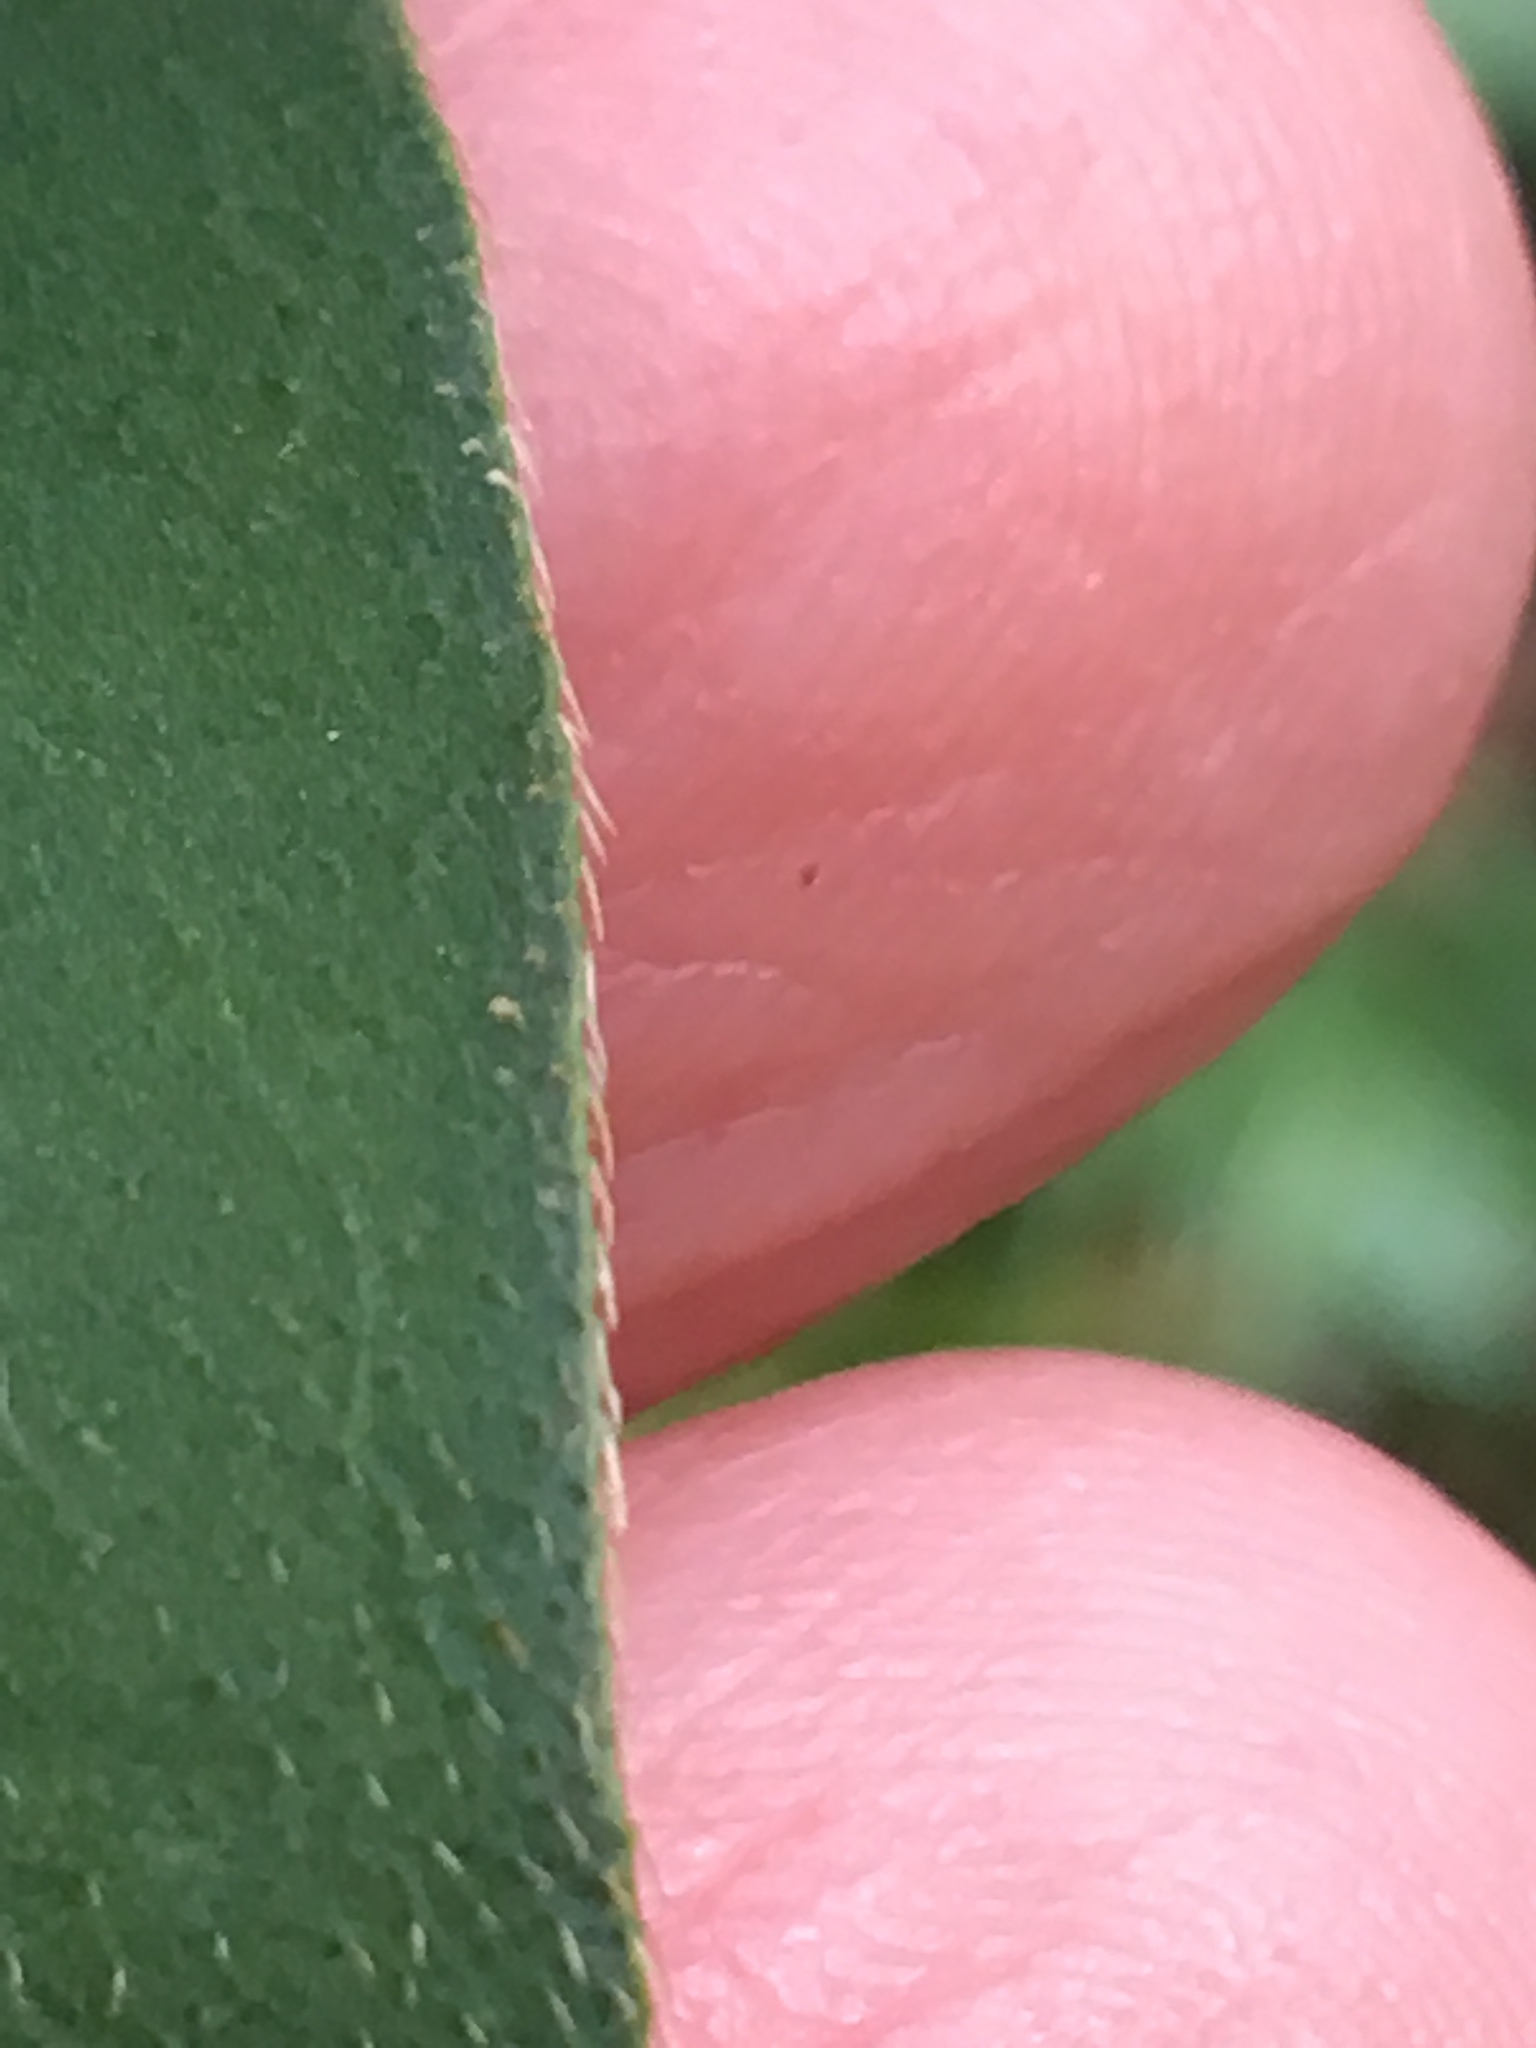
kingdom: Plantae
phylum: Tracheophyta
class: Magnoliopsida
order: Caryophyllales
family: Polygonaceae
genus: Persicaria
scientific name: Persicaria extremiorientalis
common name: Far-eastern smartweed
